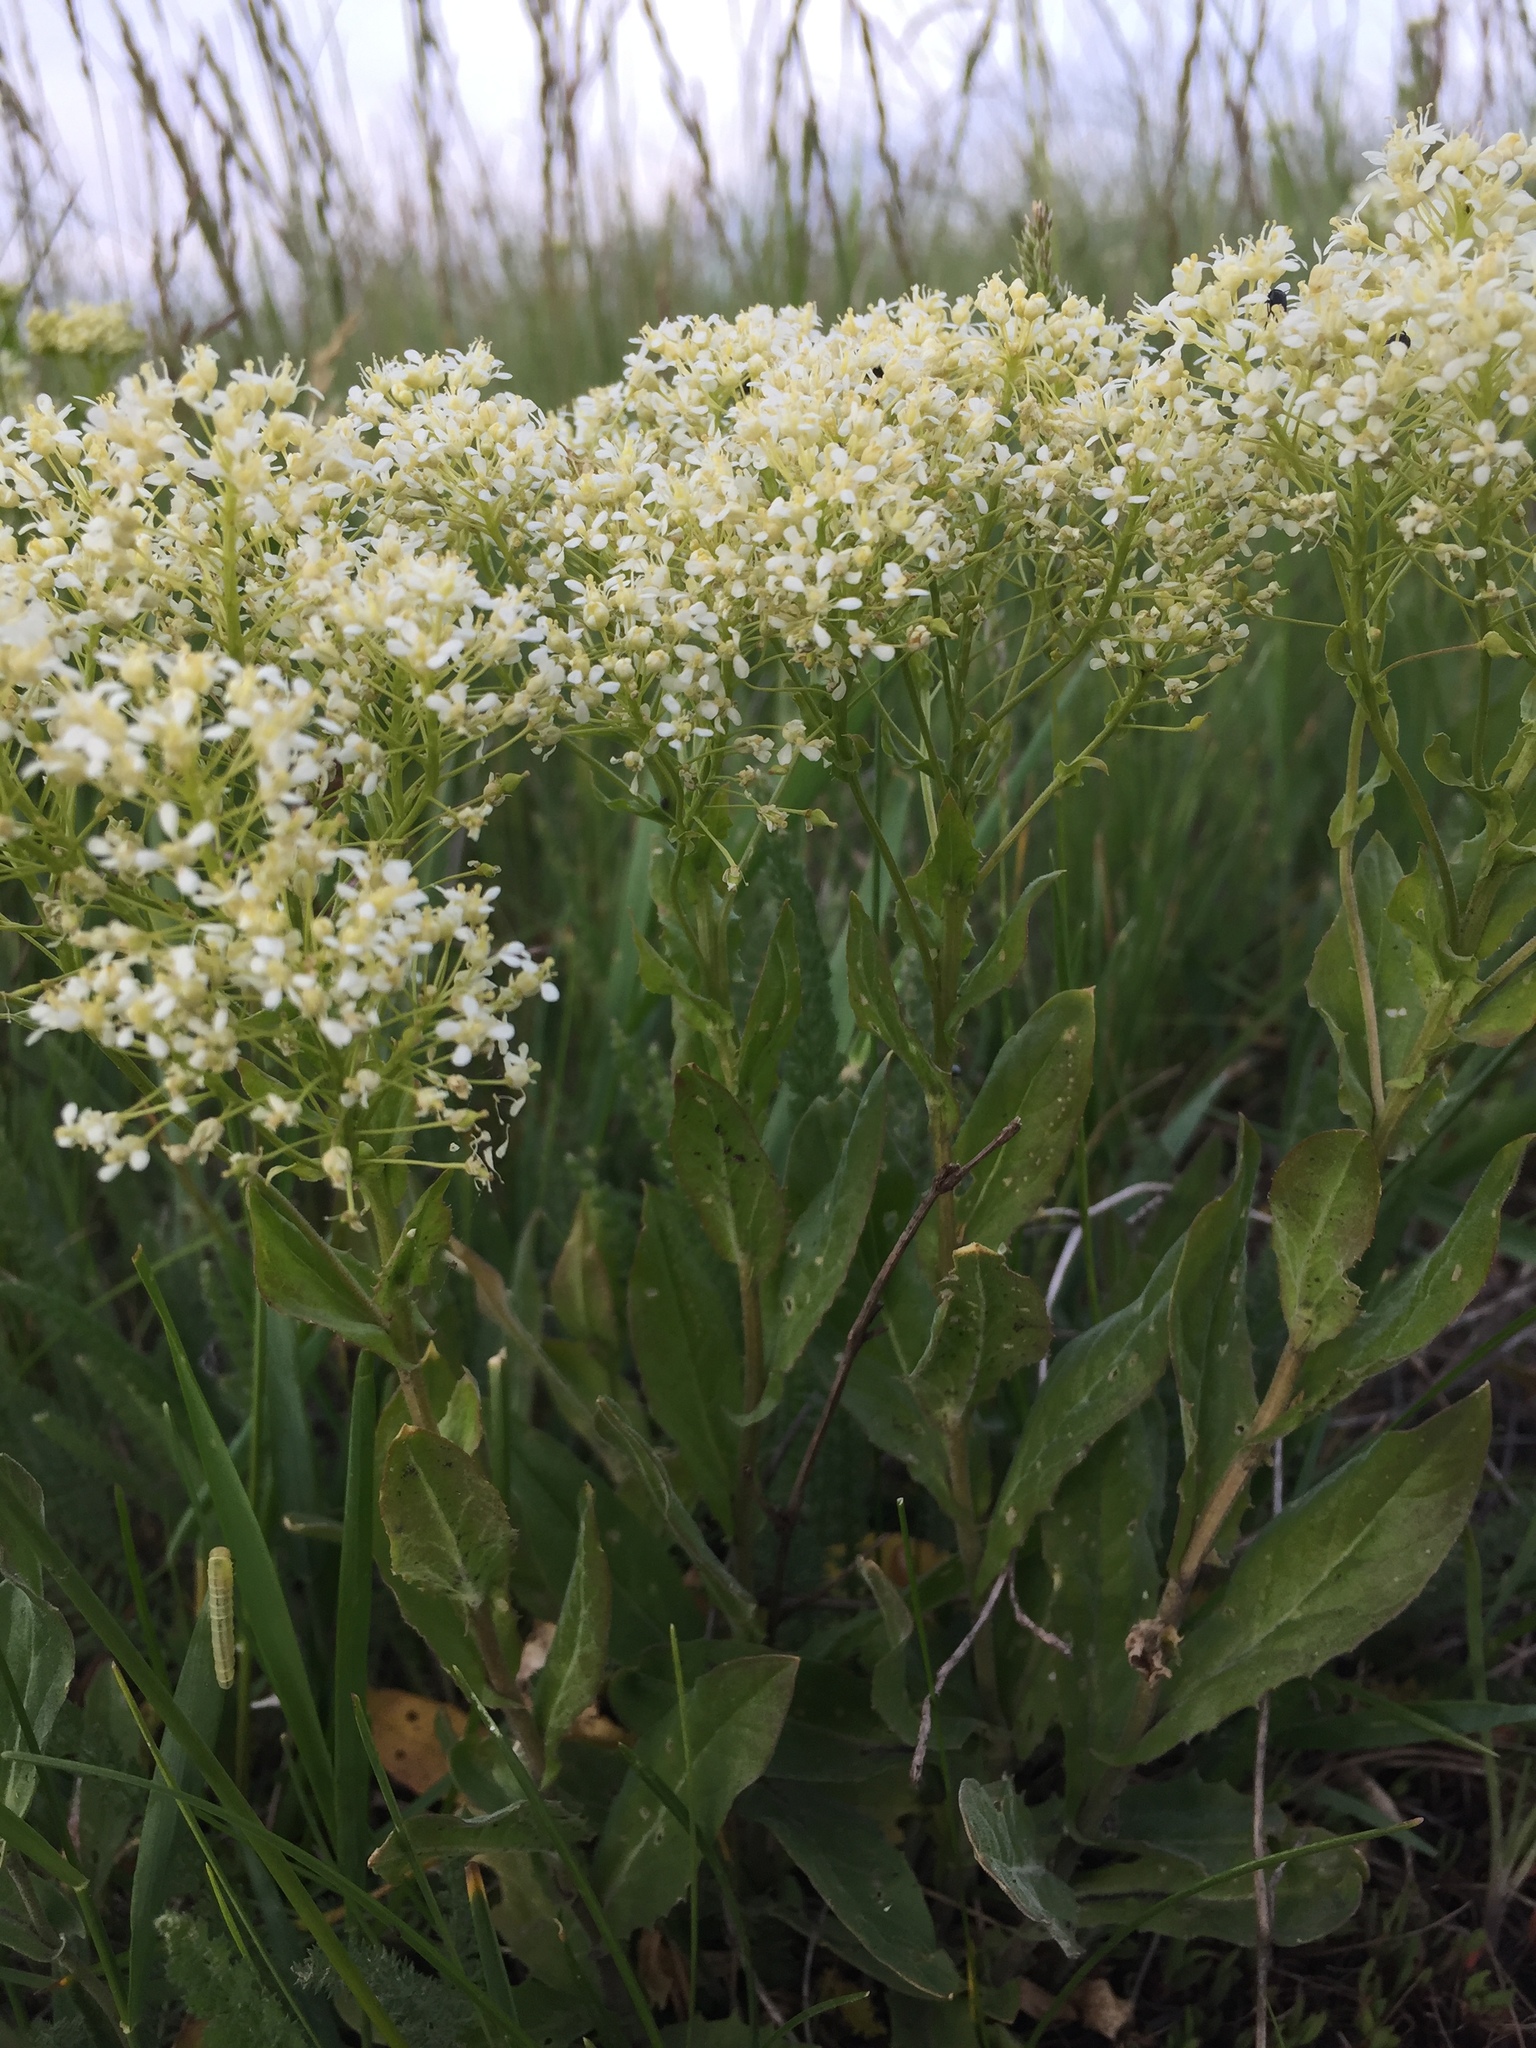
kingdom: Plantae
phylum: Tracheophyta
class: Magnoliopsida
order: Brassicales
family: Brassicaceae
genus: Lepidium
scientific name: Lepidium draba
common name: Hoary cress
